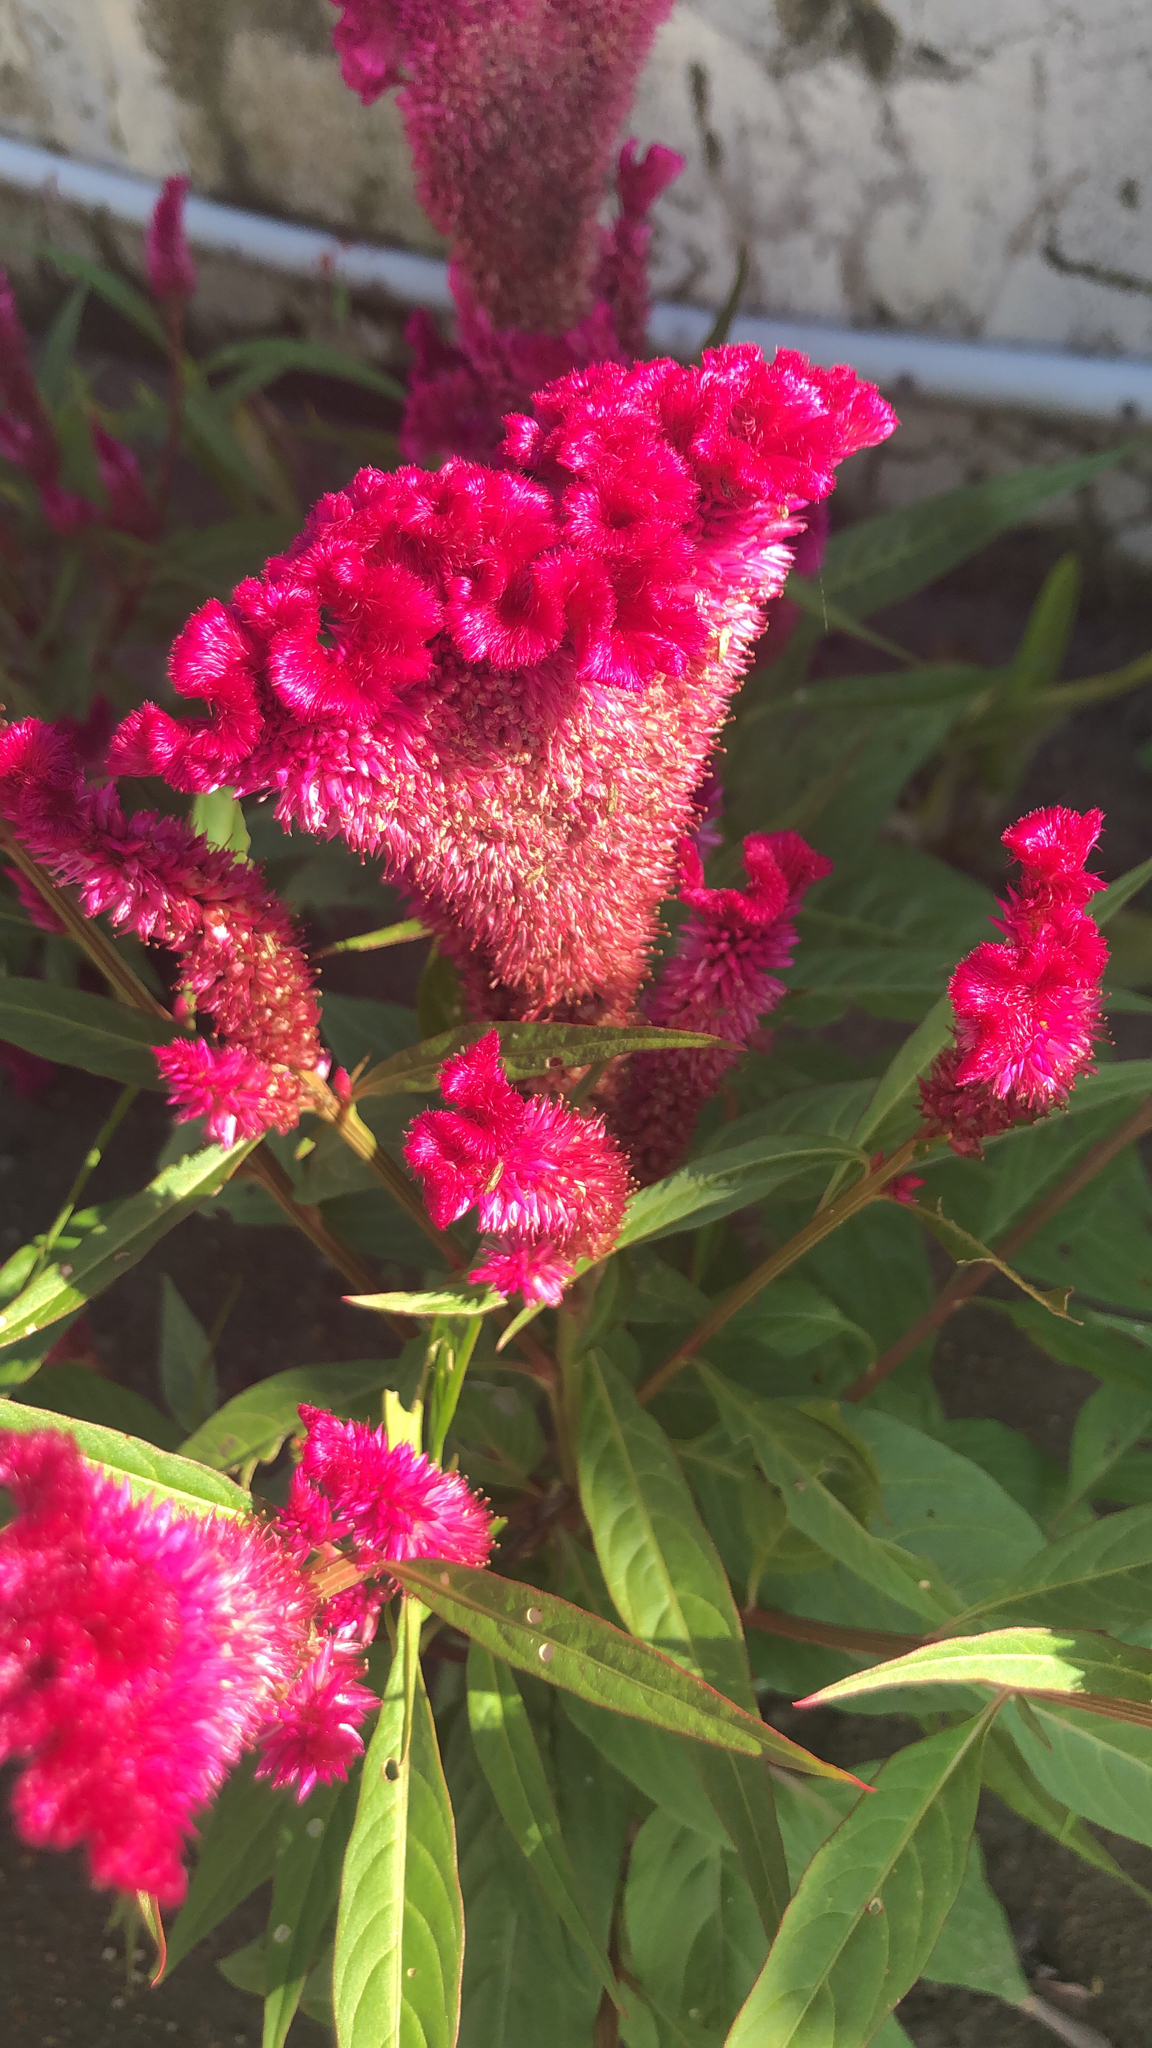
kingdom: Plantae
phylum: Tracheophyta
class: Magnoliopsida
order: Caryophyllales
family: Amaranthaceae
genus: Celosia
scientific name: Celosia argentea
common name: Feather cockscomb
